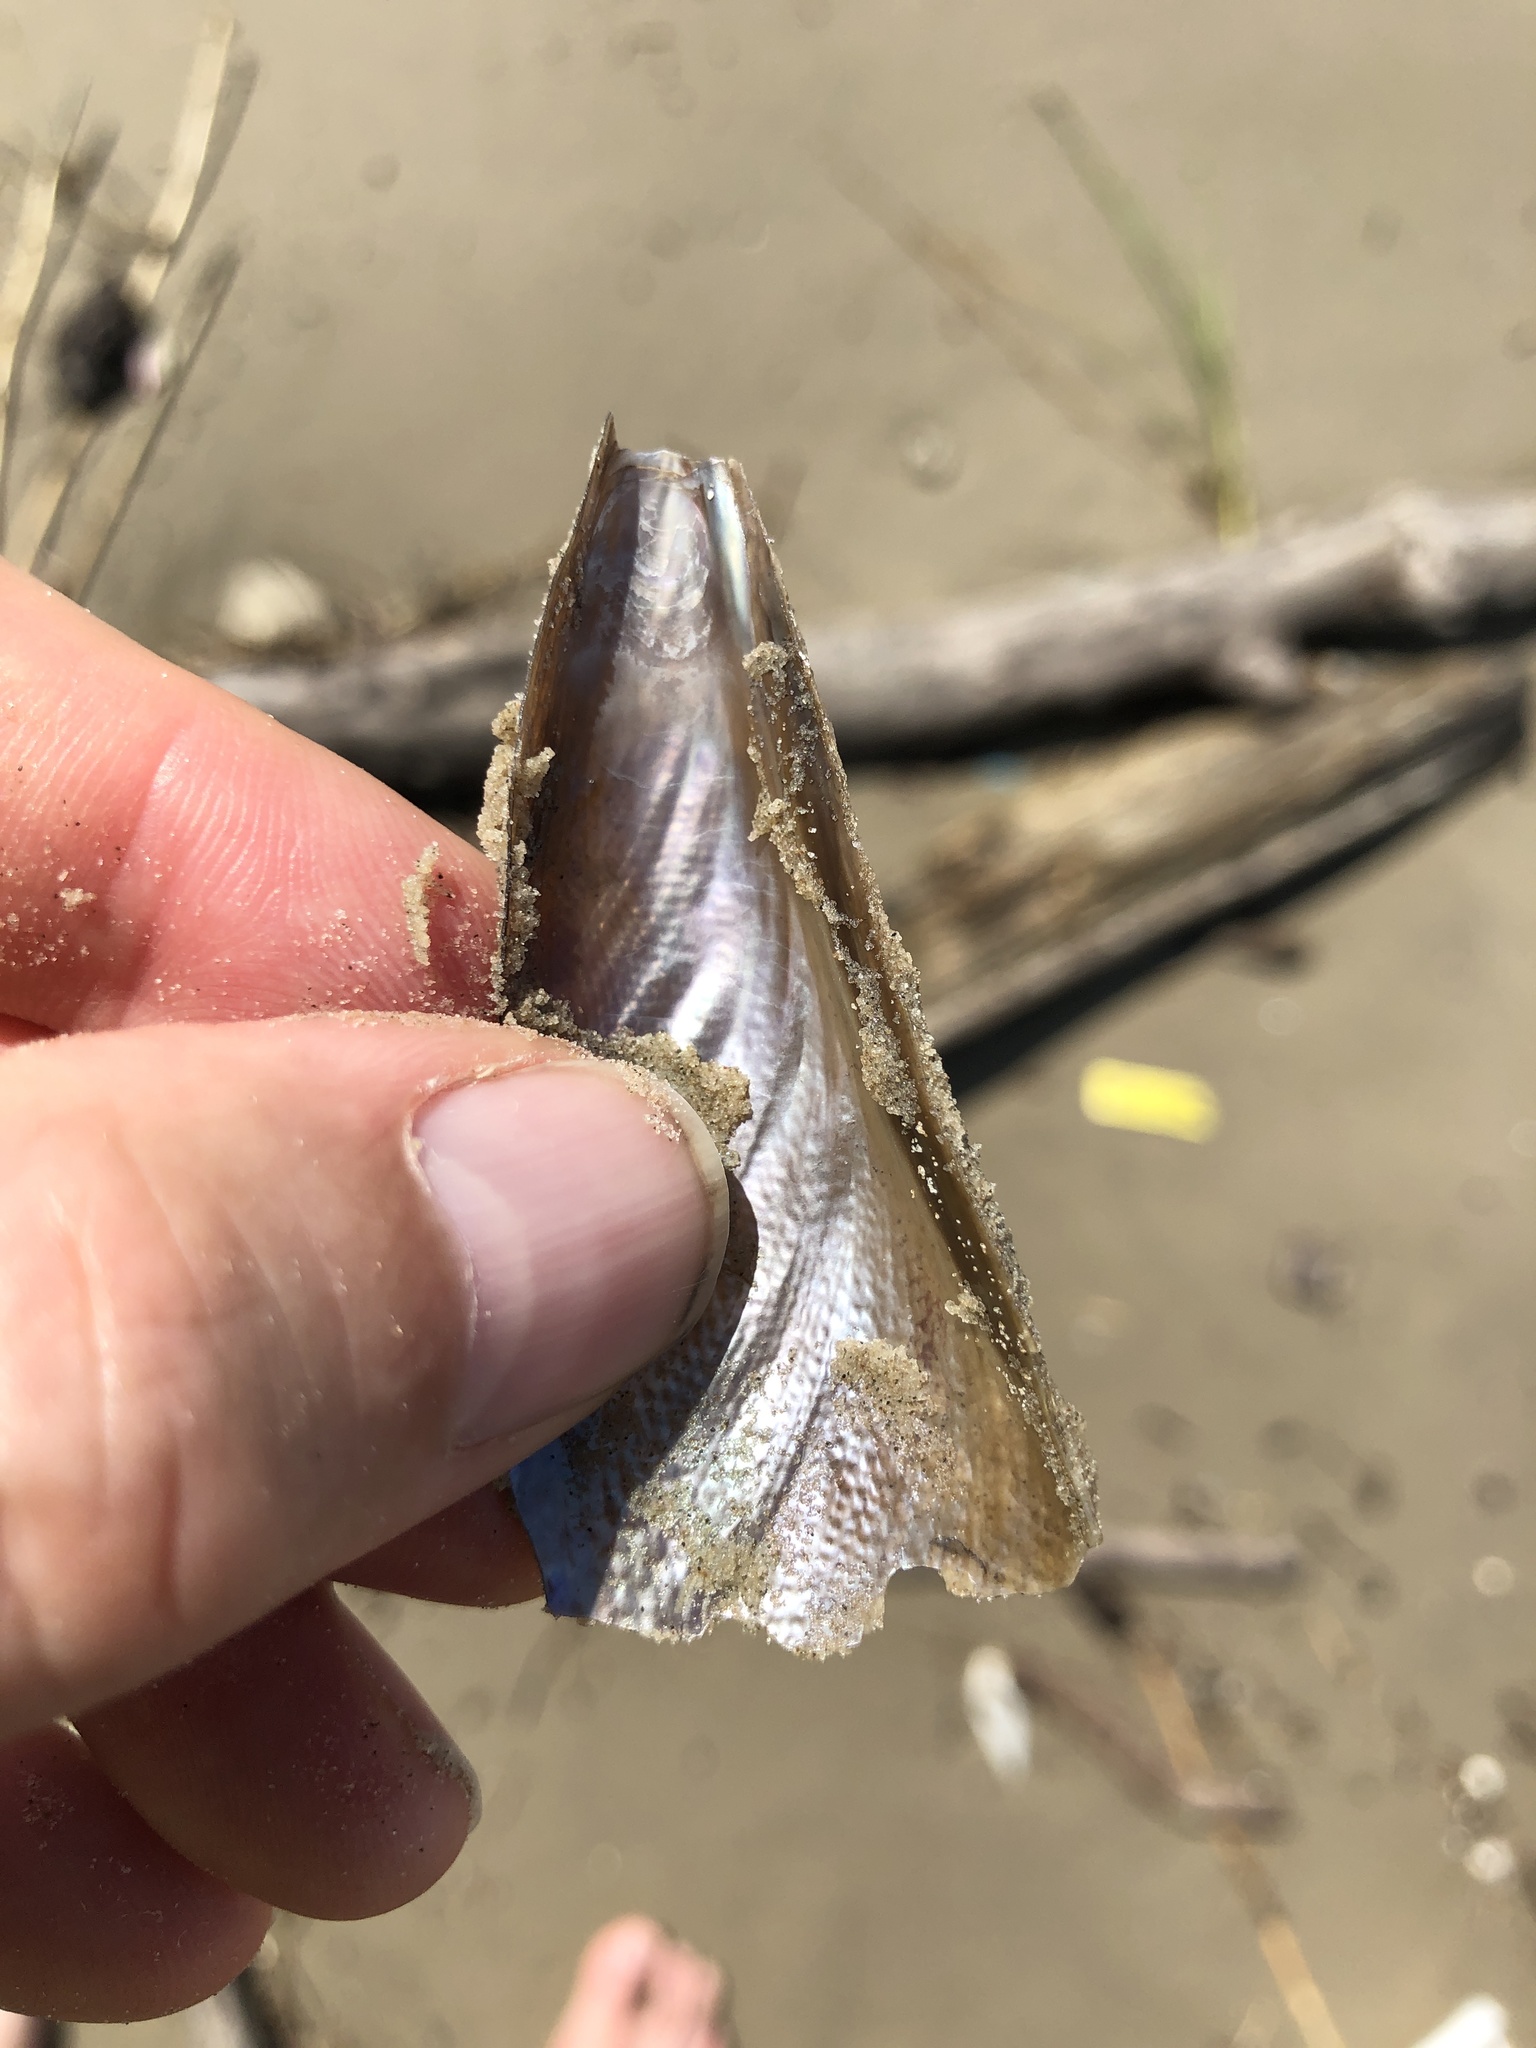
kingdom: Animalia
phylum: Mollusca
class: Bivalvia
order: Ostreida
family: Pinnidae
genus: Atrina
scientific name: Atrina serrata
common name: Saw-toothed penshell
